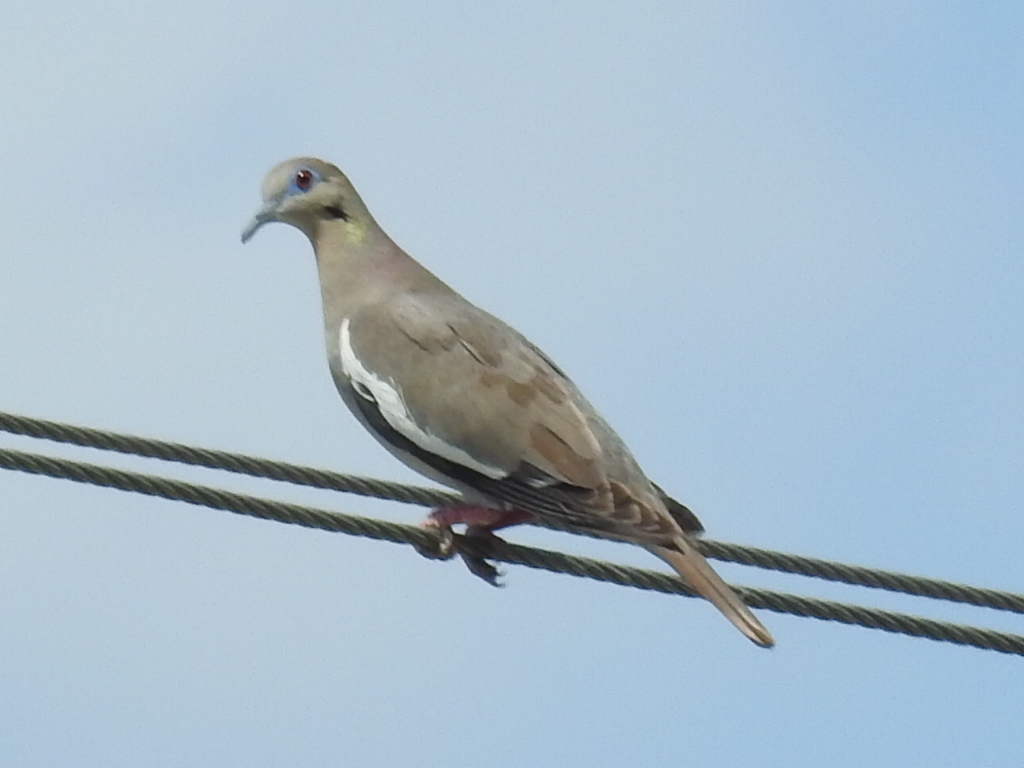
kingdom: Animalia
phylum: Chordata
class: Aves
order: Columbiformes
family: Columbidae
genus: Zenaida
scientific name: Zenaida asiatica
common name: White-winged dove
